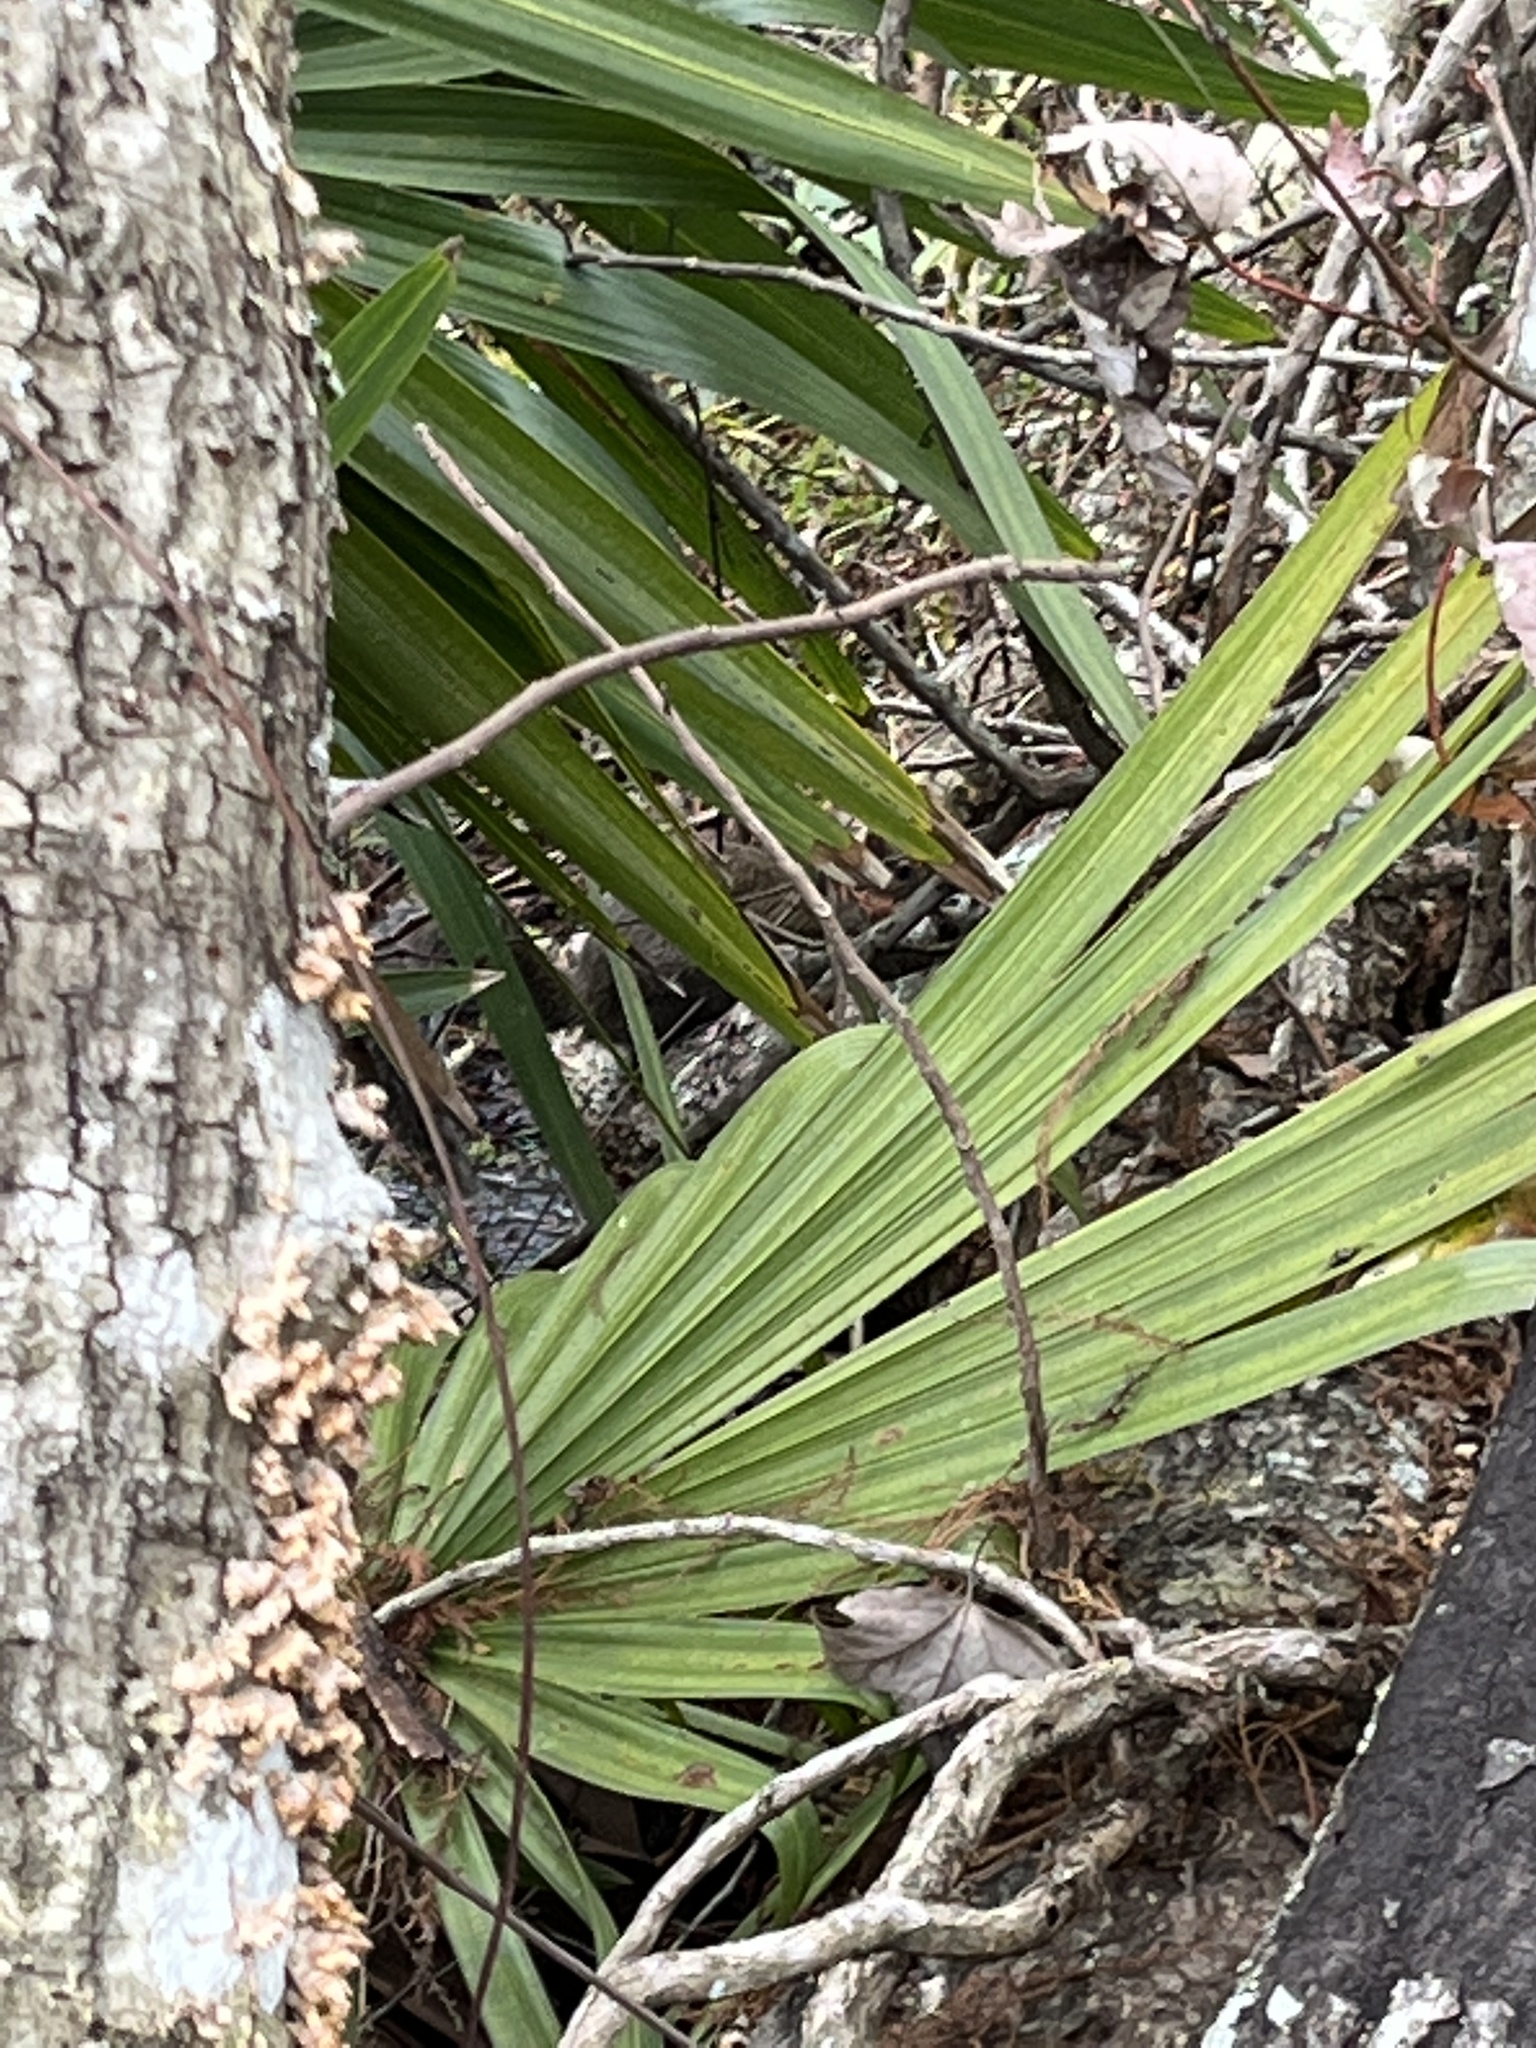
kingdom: Animalia
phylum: Chordata
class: Mammalia
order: Rodentia
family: Sciuridae
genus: Sciurus
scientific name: Sciurus carolinensis
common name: Eastern gray squirrel
